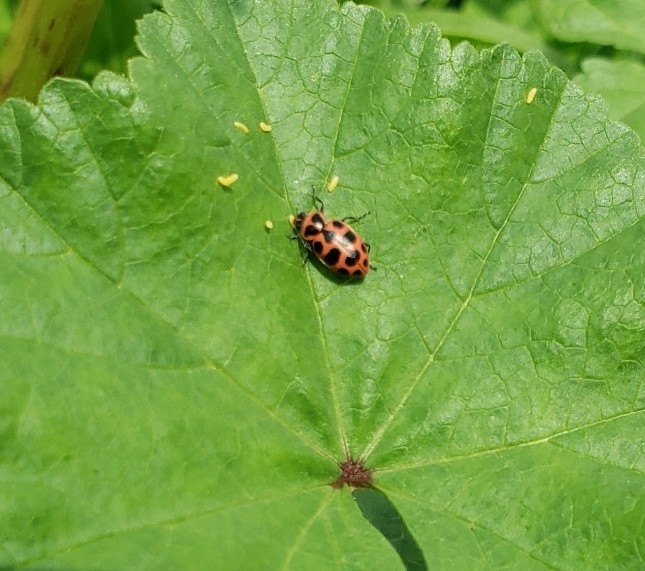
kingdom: Animalia
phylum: Arthropoda
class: Insecta
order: Coleoptera
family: Coccinellidae
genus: Coleomegilla
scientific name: Coleomegilla maculata
